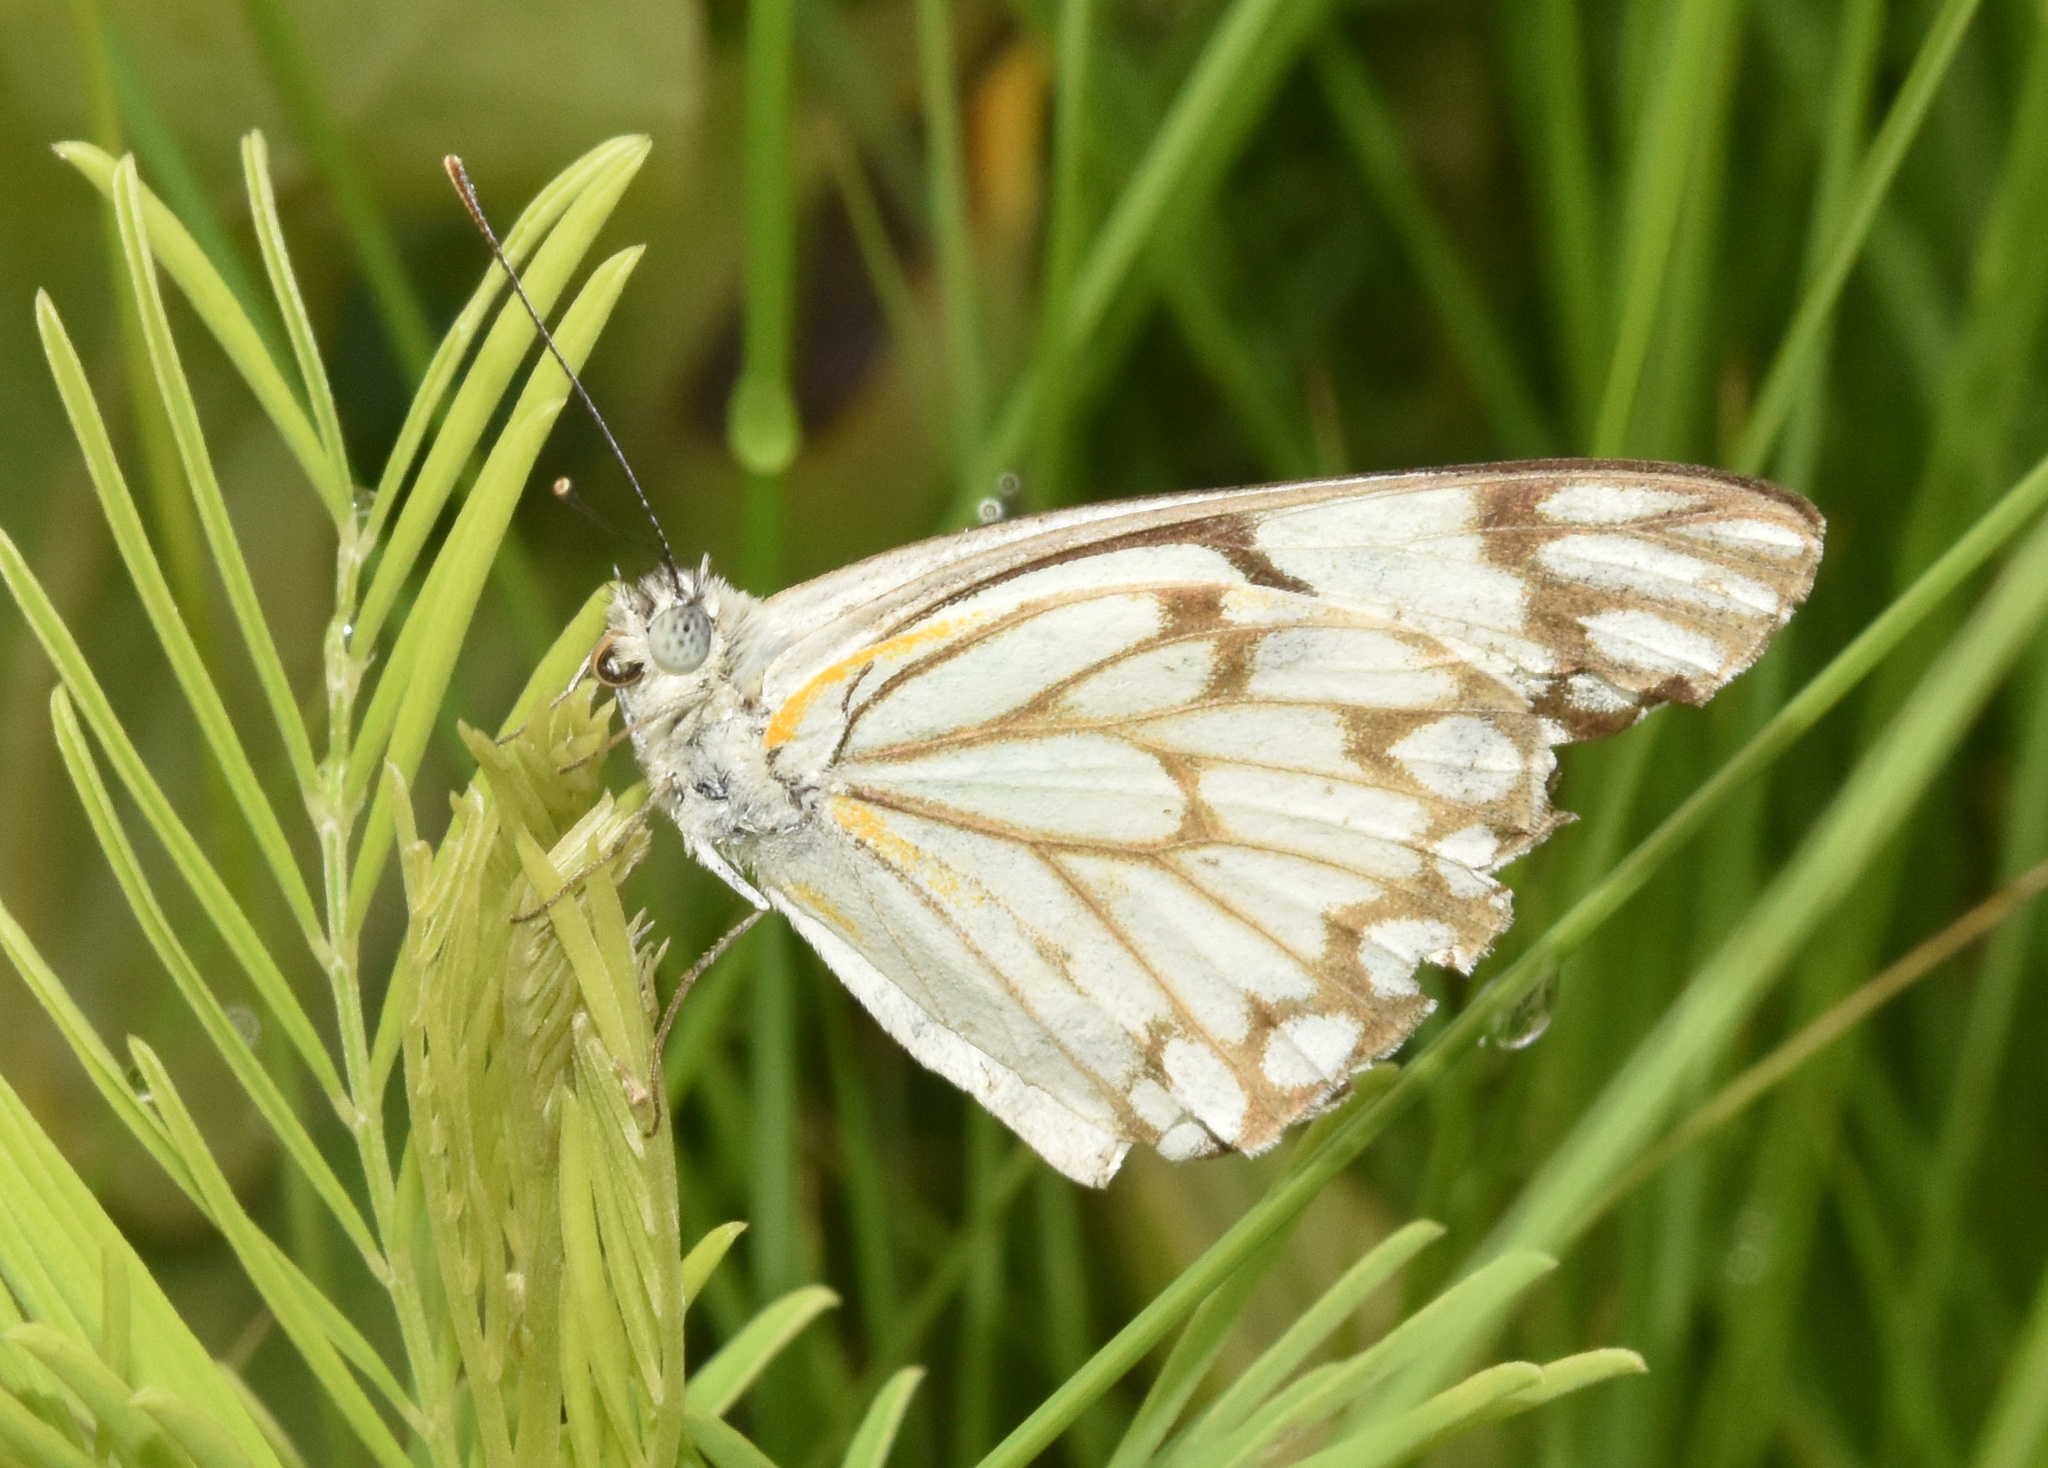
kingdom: Animalia
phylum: Arthropoda
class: Insecta
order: Lepidoptera
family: Pieridae
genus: Belenois
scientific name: Belenois aurota
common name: Brown-veined white
